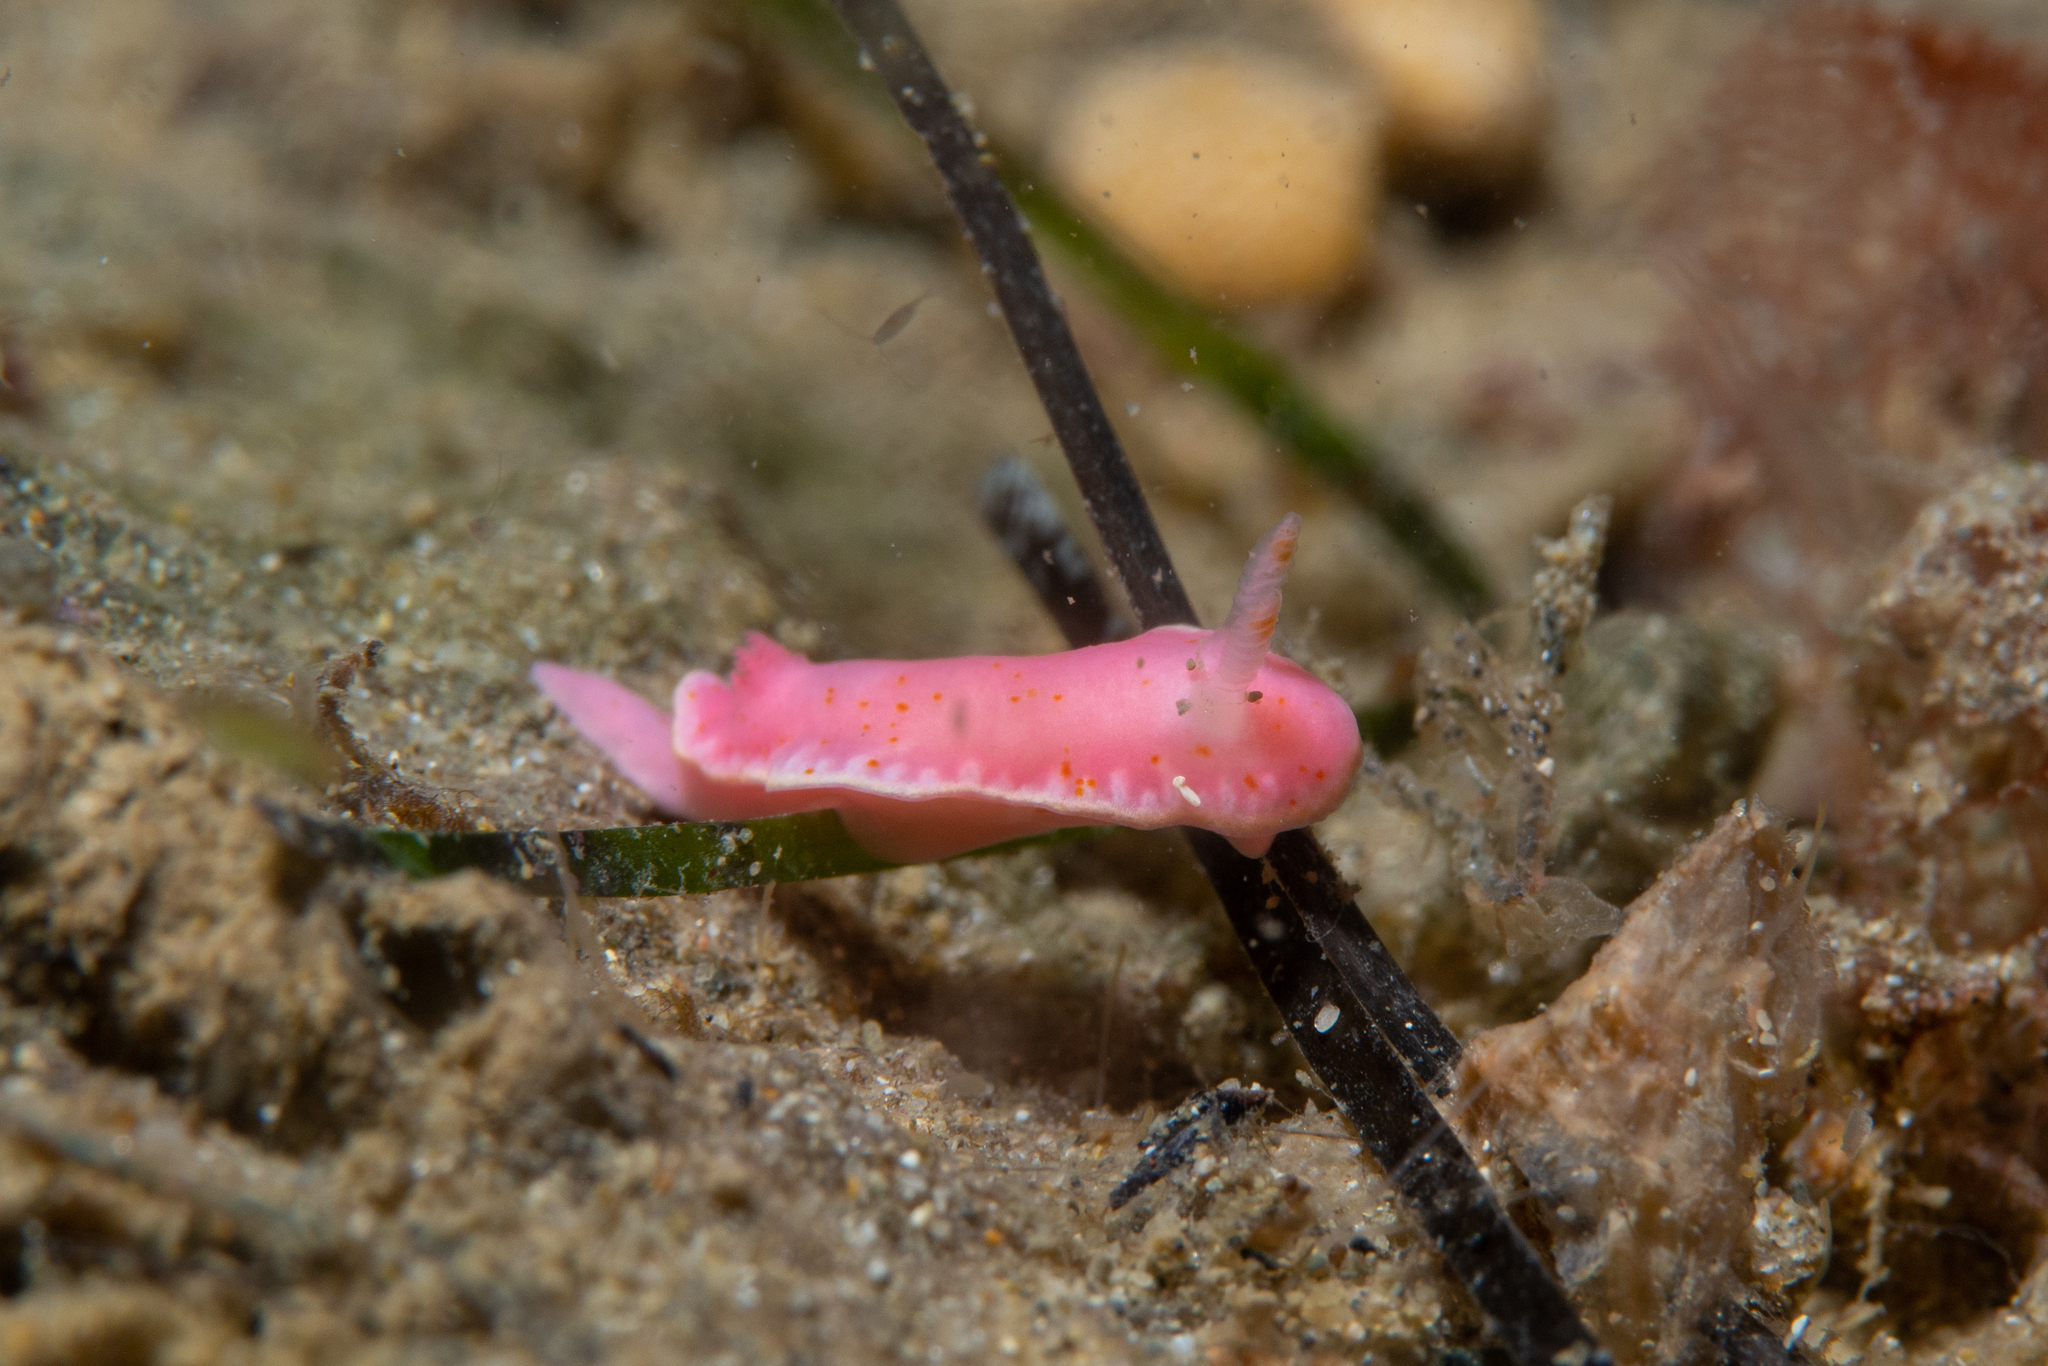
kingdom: Animalia
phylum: Mollusca
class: Gastropoda
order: Nudibranchia
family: Chromodorididae
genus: Verconia
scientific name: Verconia haliclona
